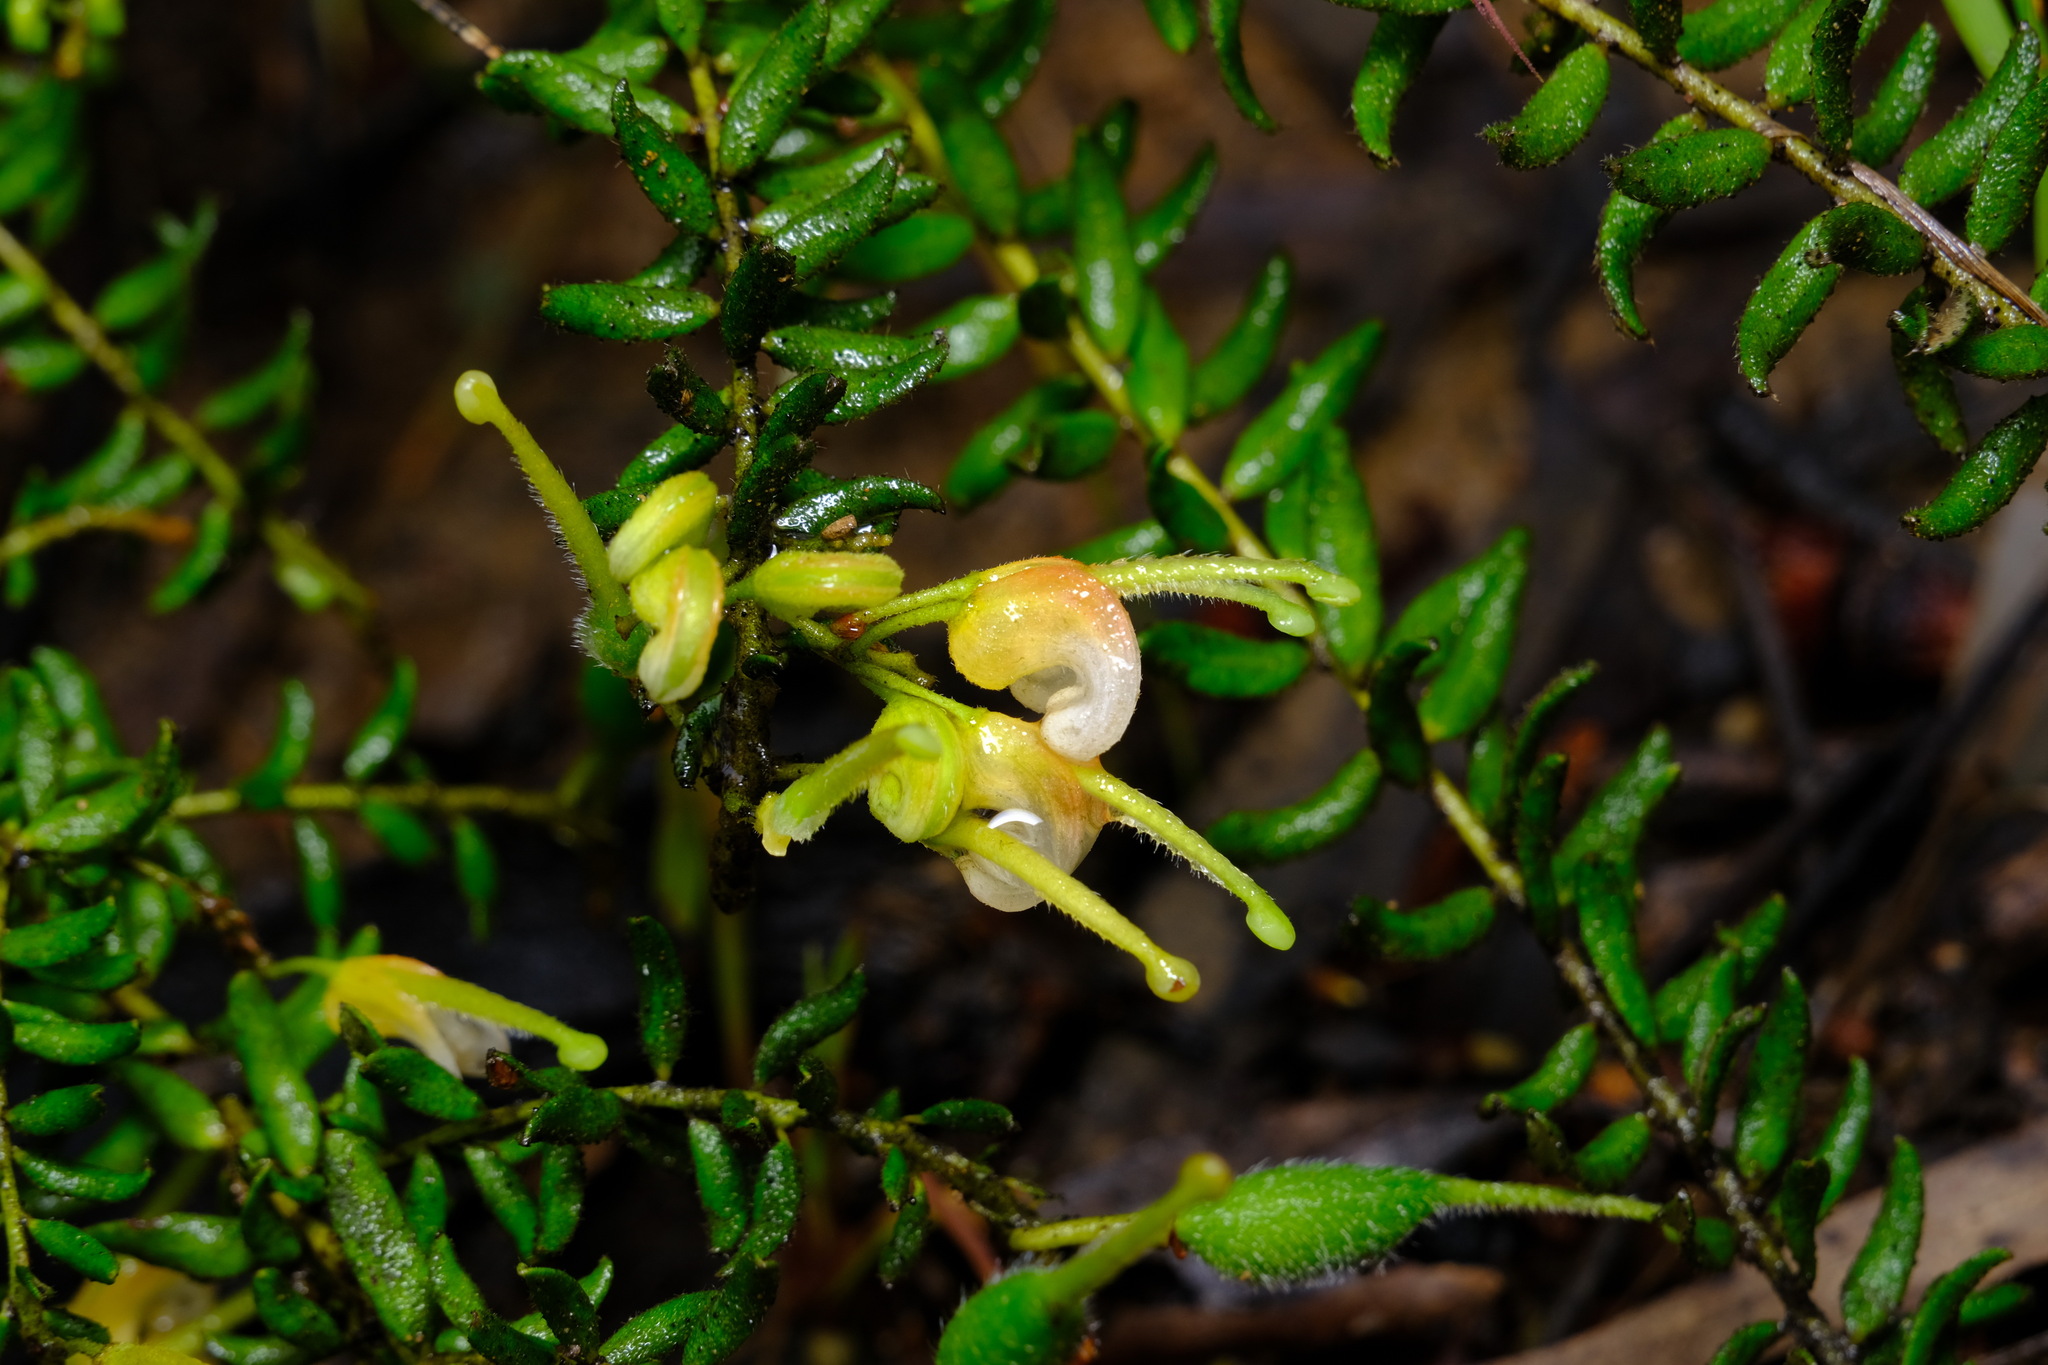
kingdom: Plantae
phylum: Tracheophyta
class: Magnoliopsida
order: Proteales
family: Proteaceae
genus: Grevillea
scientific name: Grevillea alpina
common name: Catclaws grevillea
